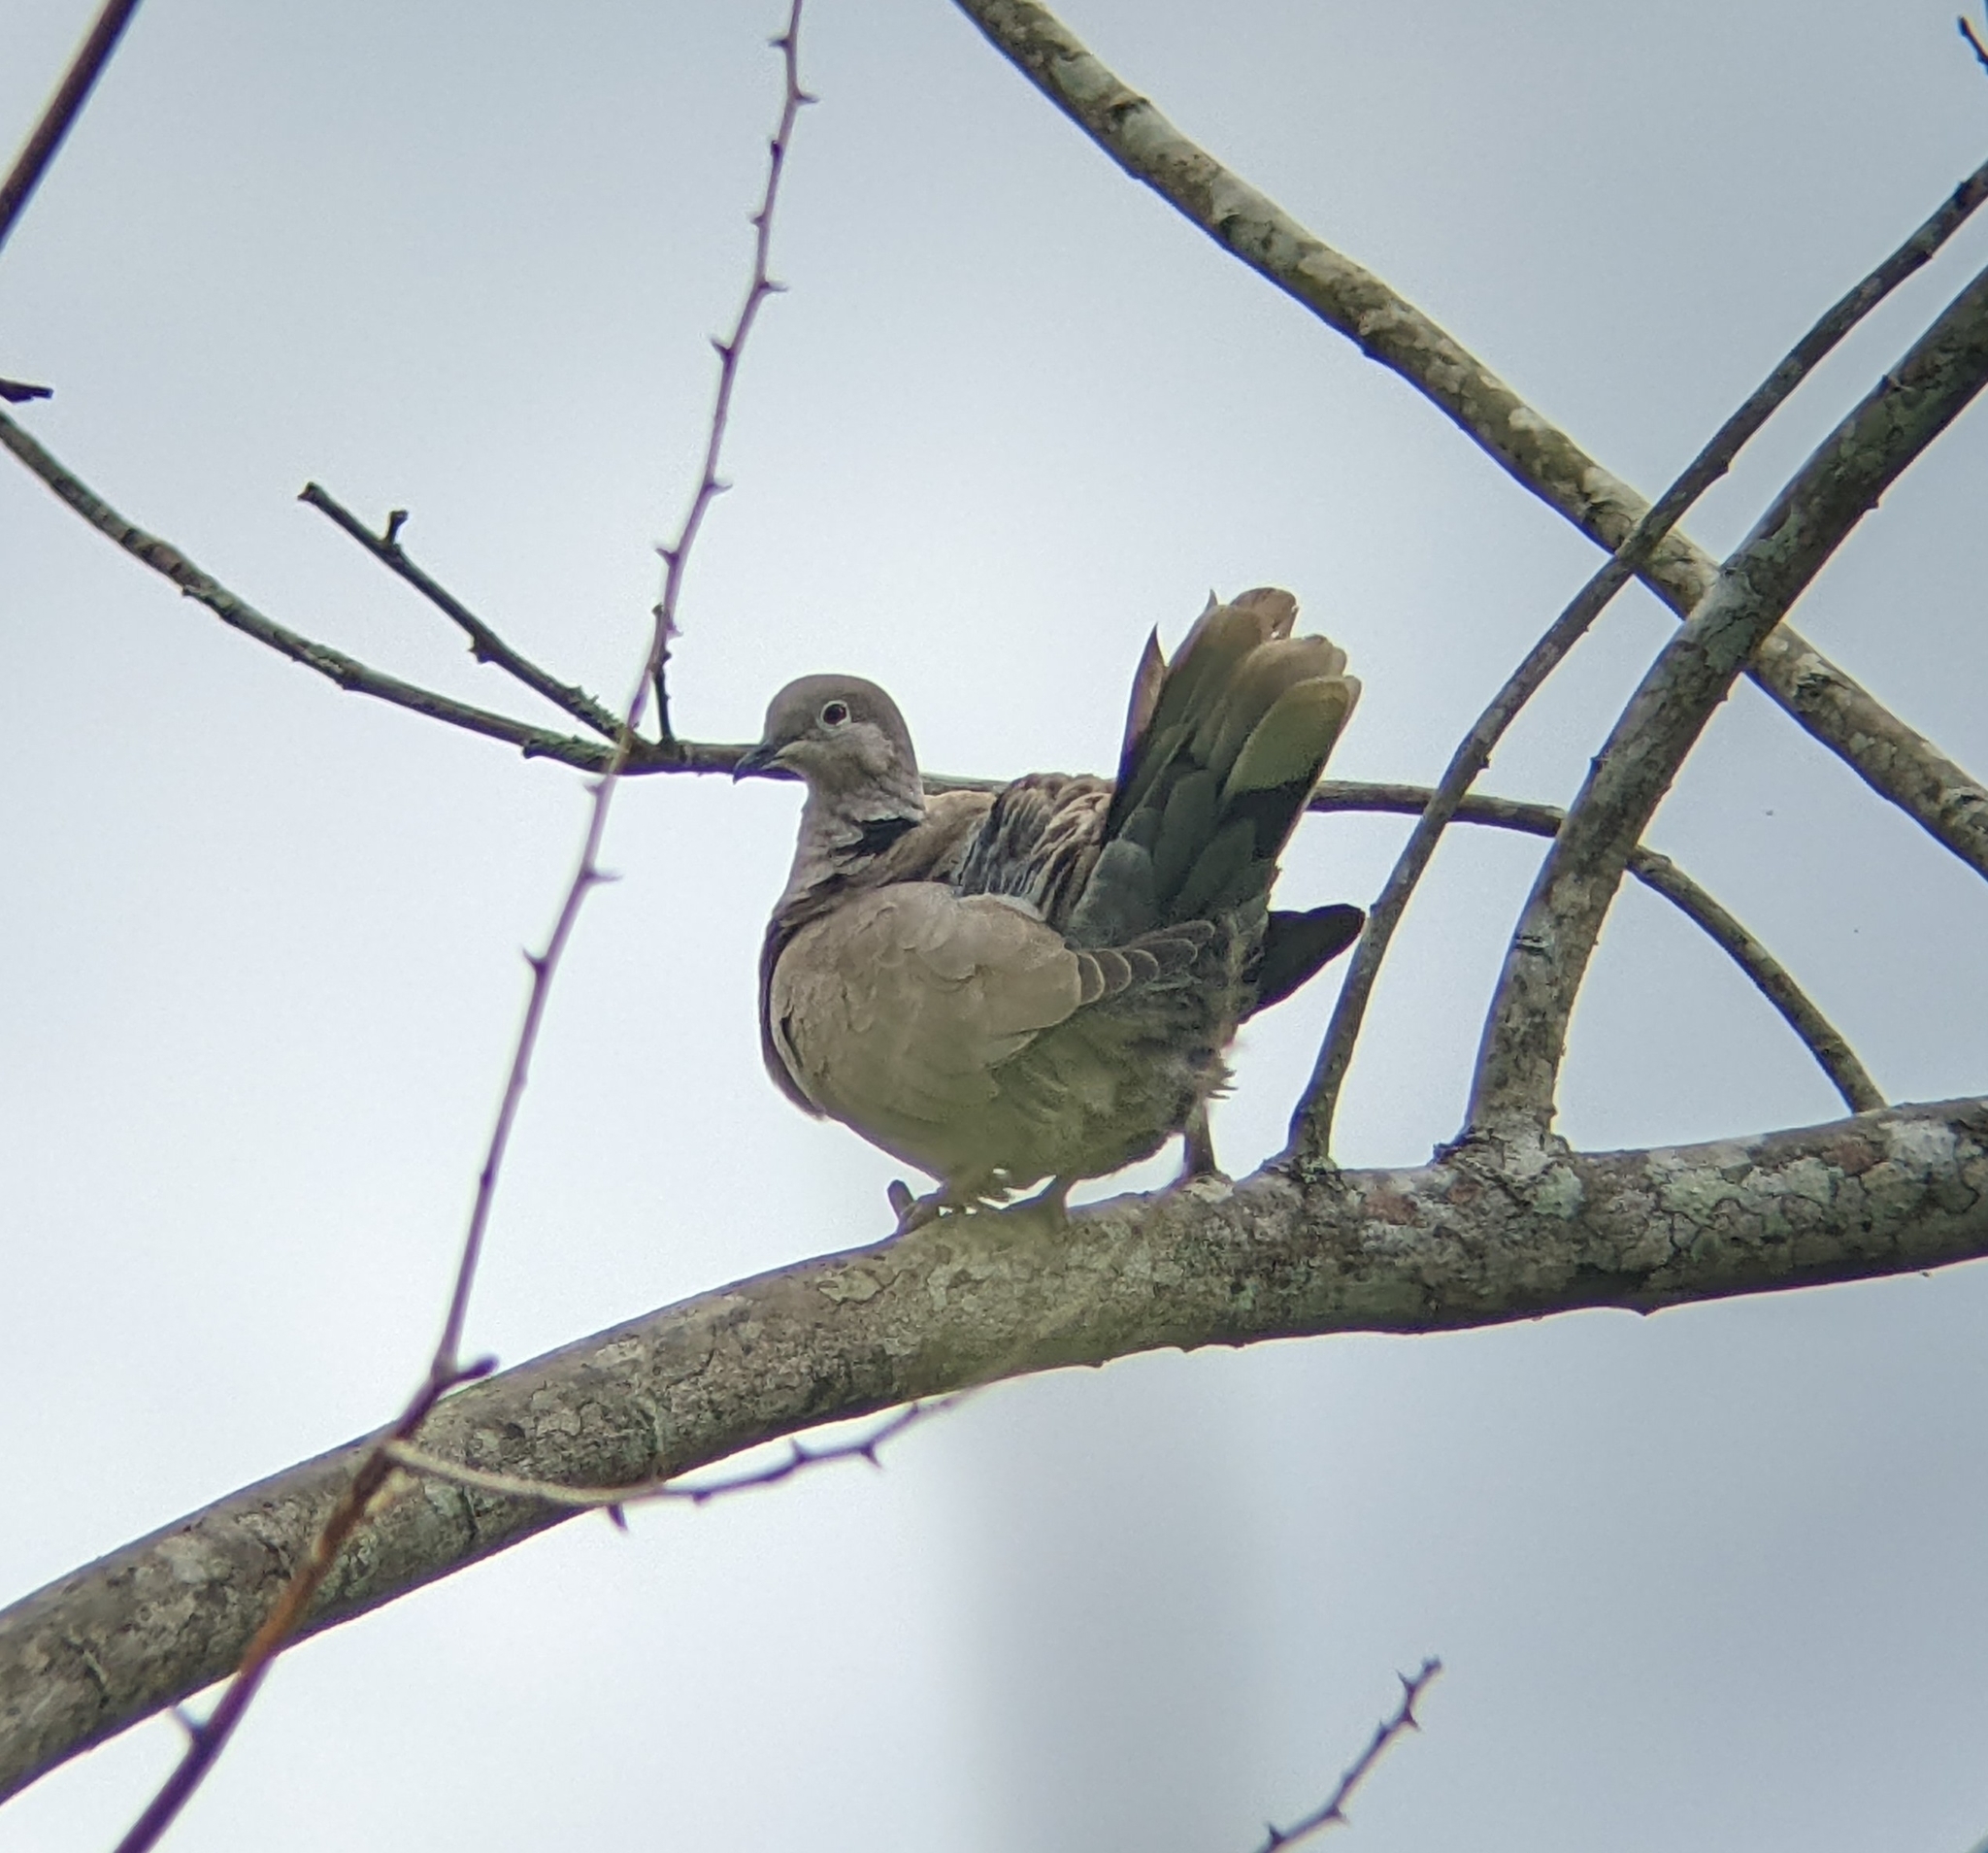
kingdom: Animalia
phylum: Chordata
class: Aves
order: Columbiformes
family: Columbidae
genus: Streptopelia
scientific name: Streptopelia decaocto
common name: Eurasian collared dove
